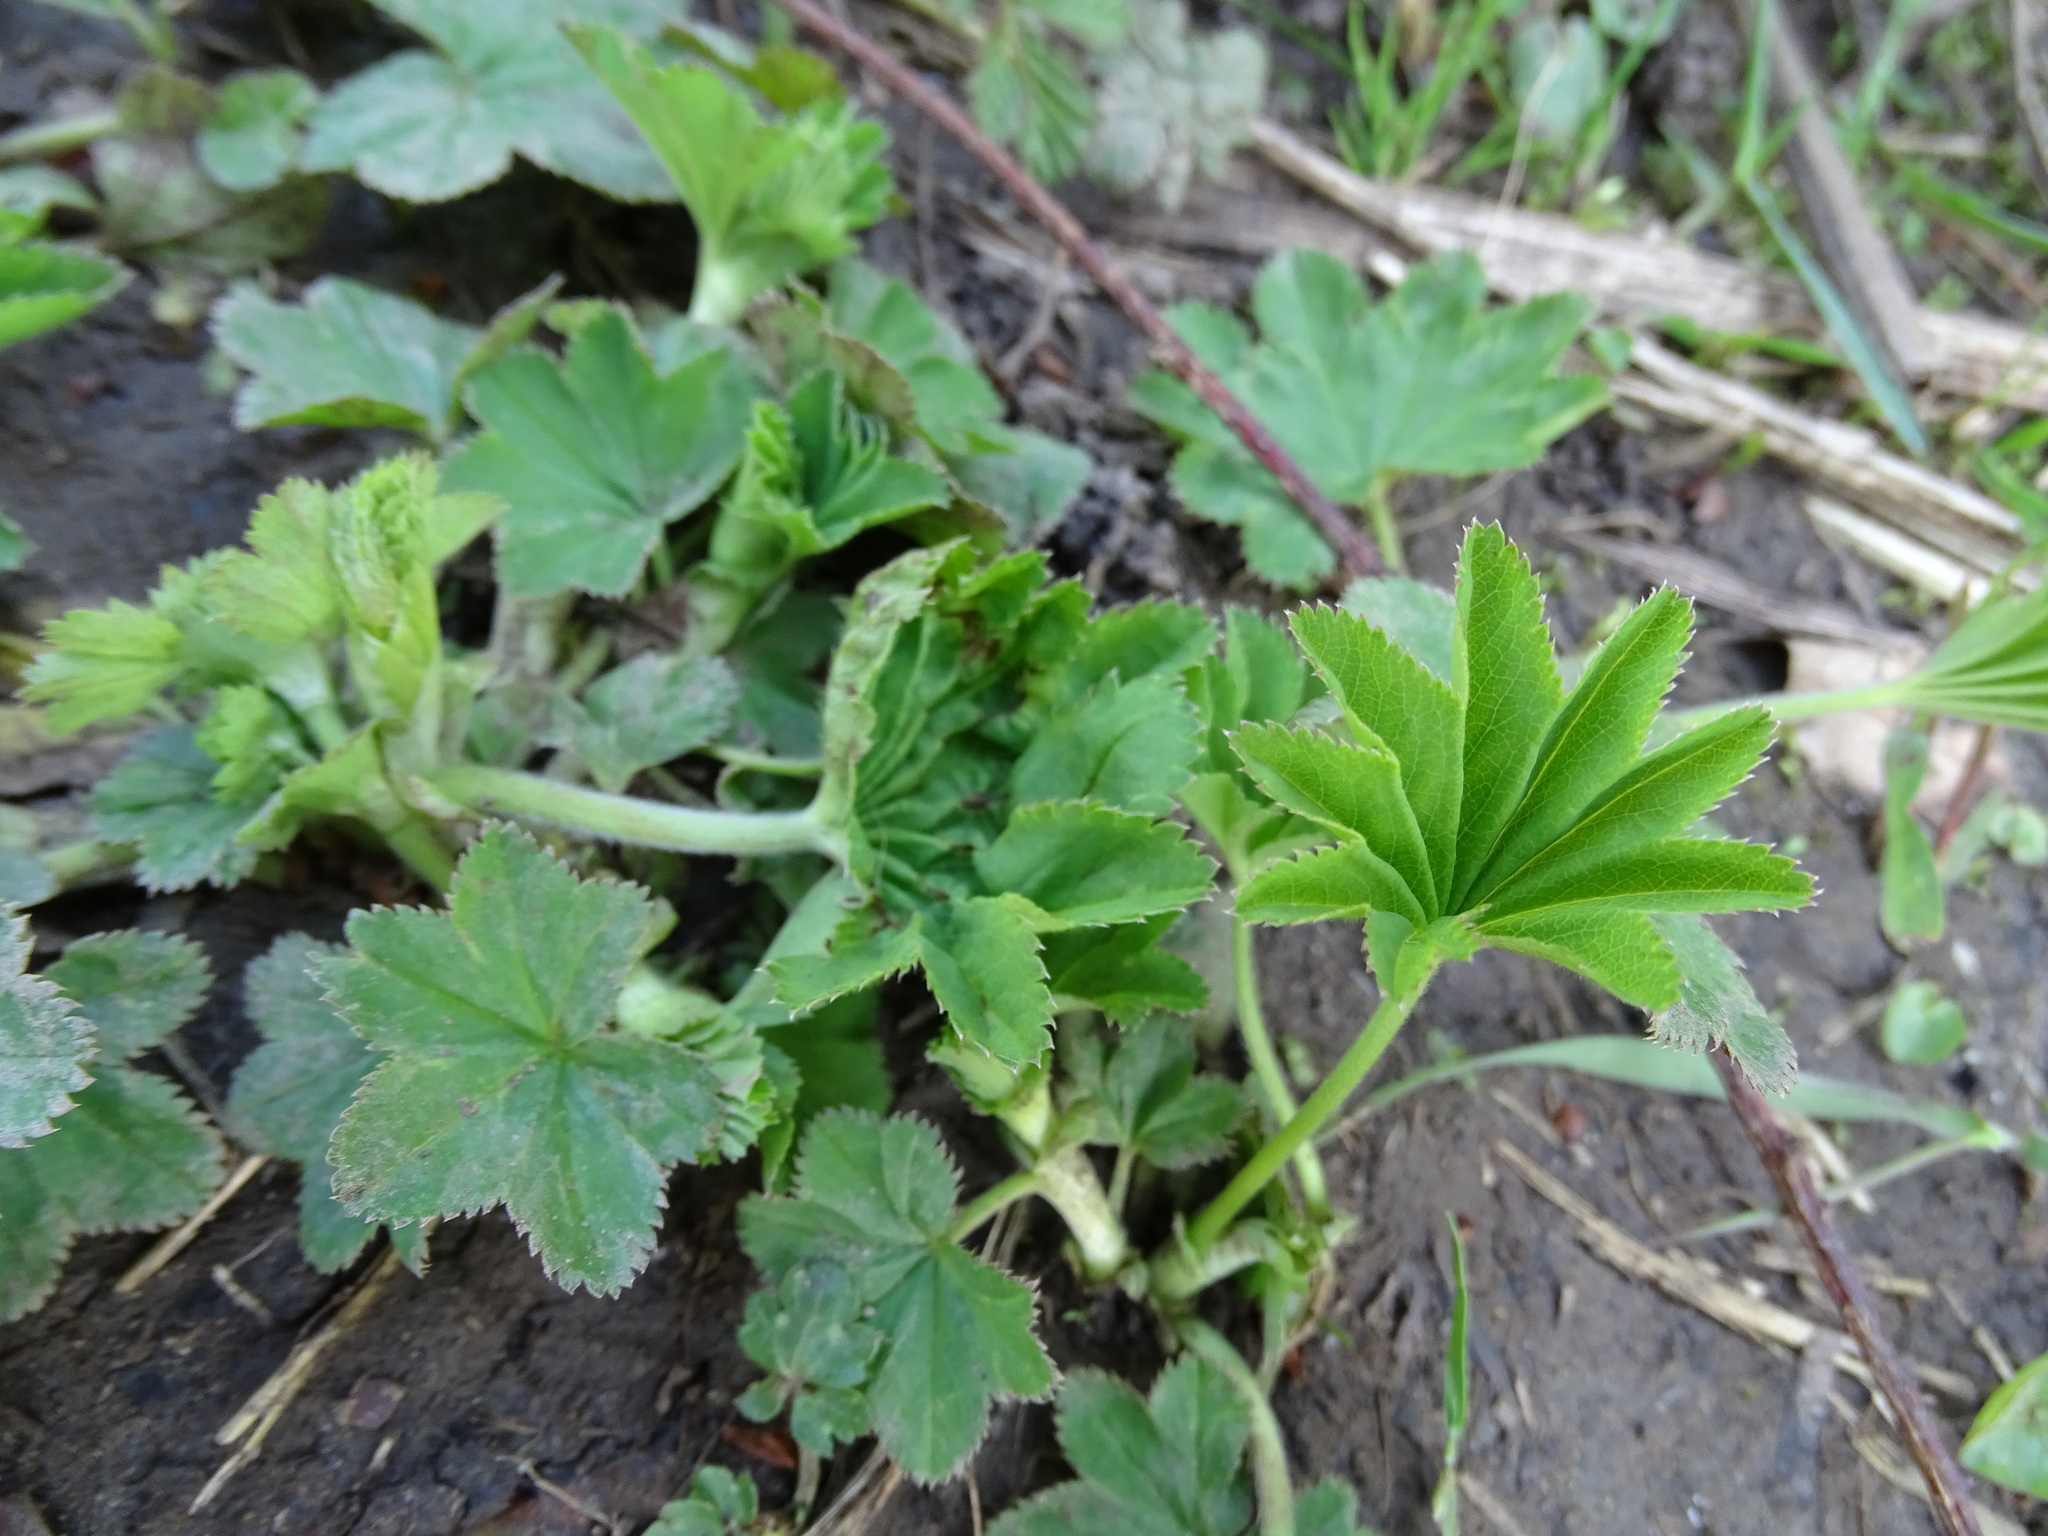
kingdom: Plantae
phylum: Tracheophyta
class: Magnoliopsida
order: Rosales
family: Rosaceae
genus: Alchemilla
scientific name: Alchemilla vulgaris
